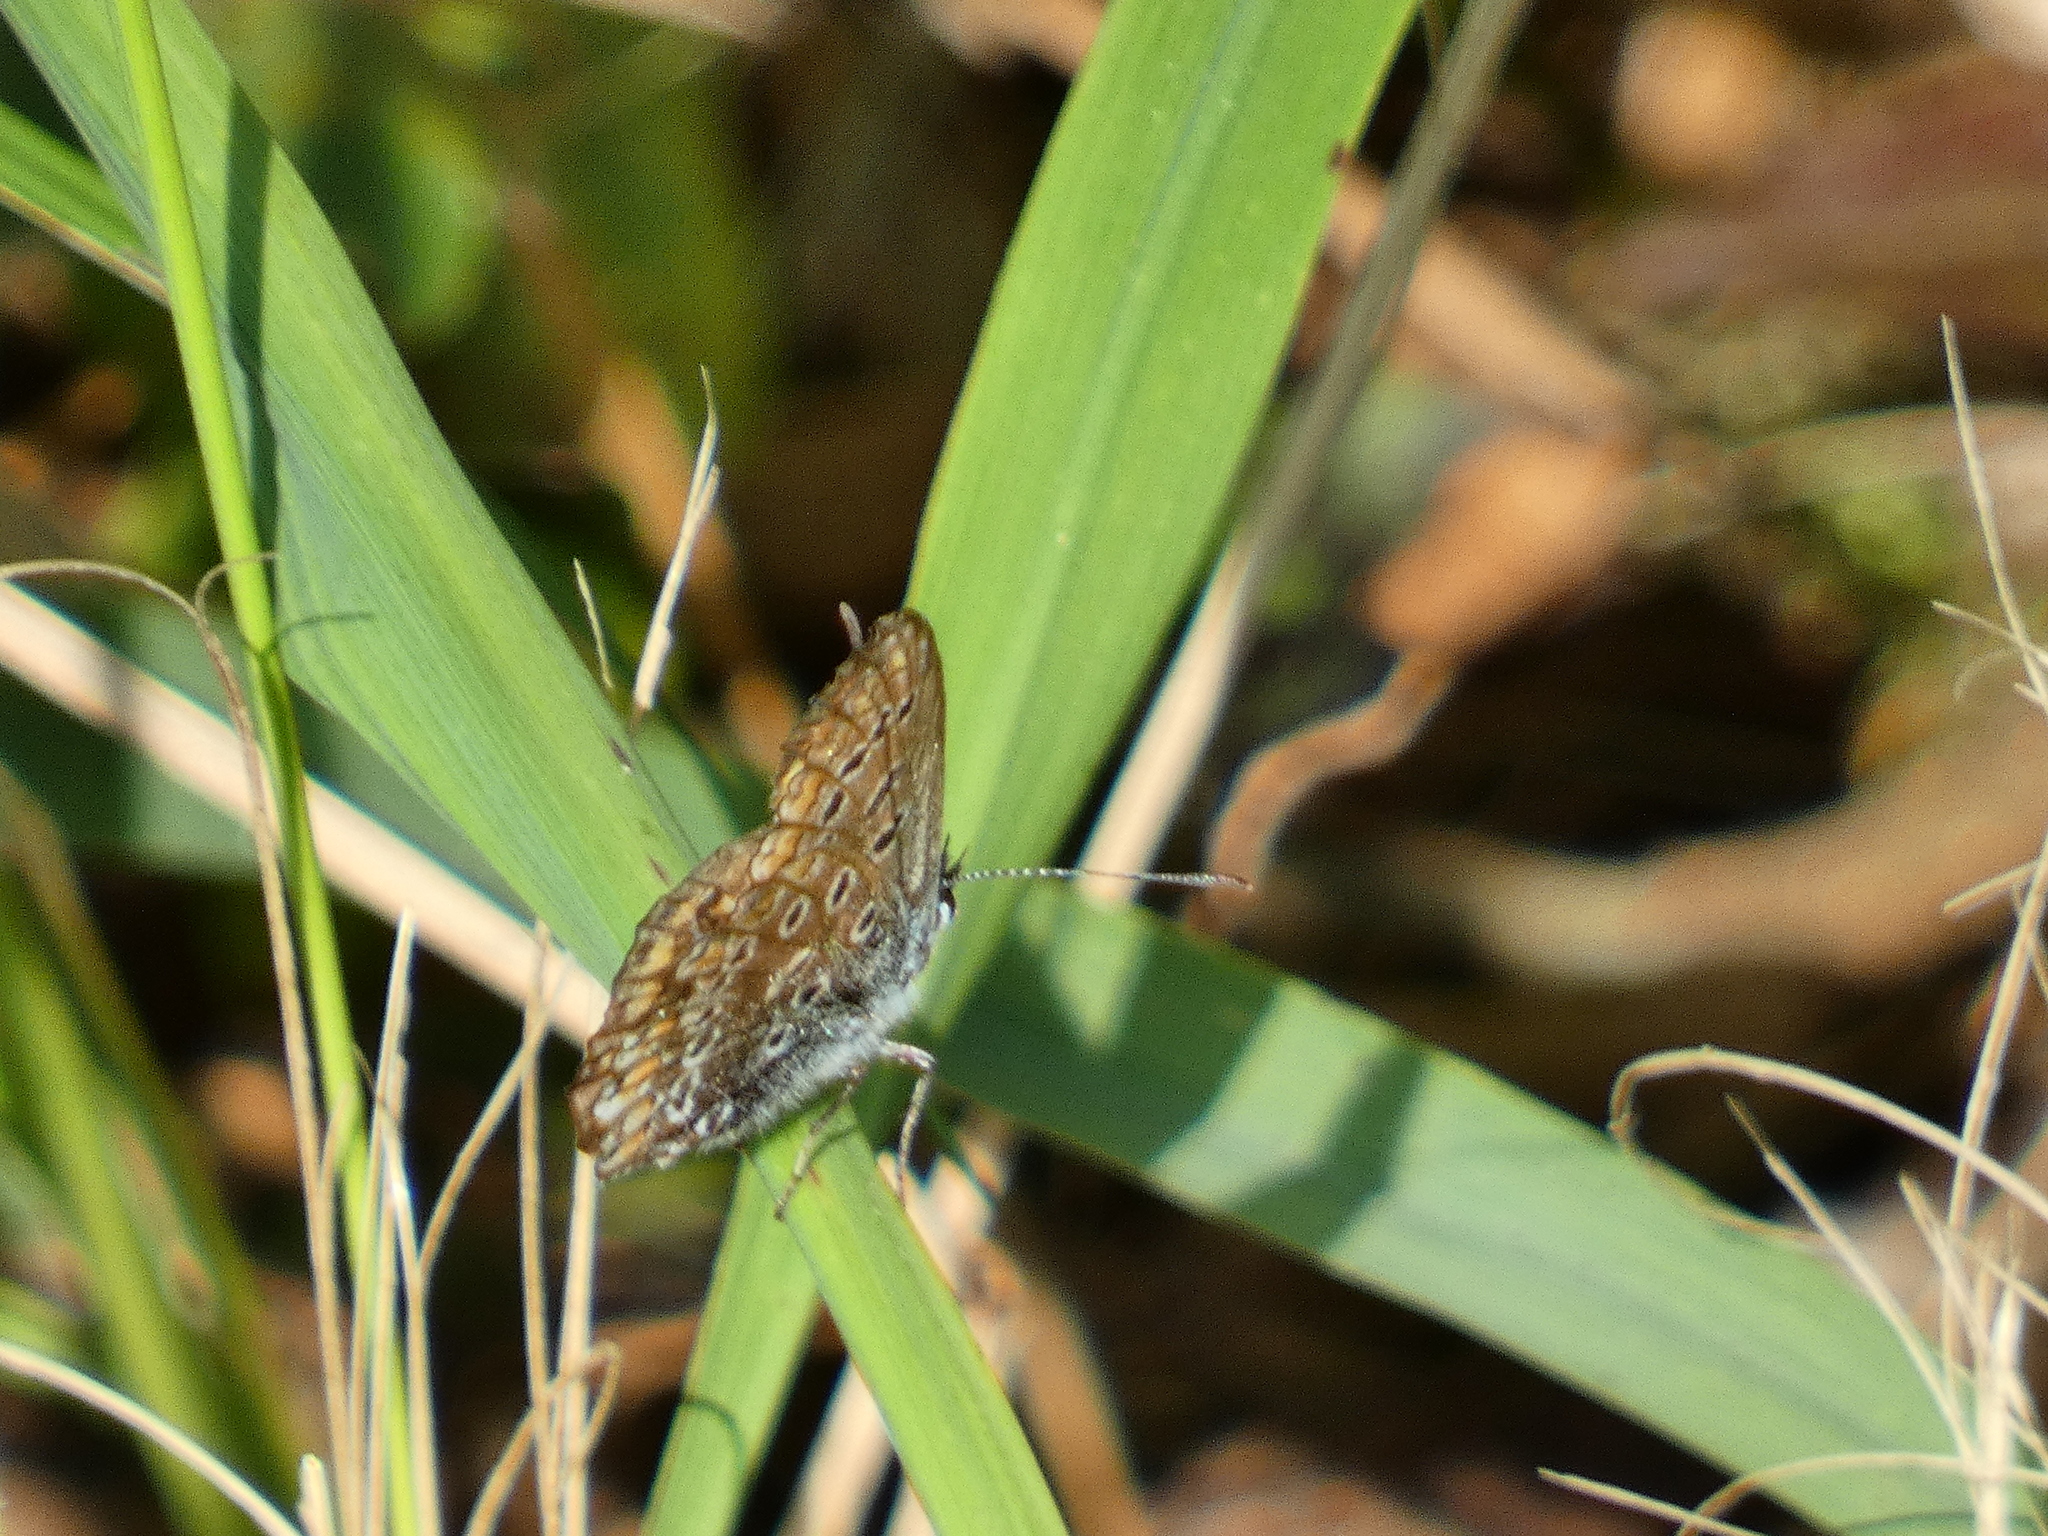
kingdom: Animalia
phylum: Arthropoda
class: Insecta
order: Lepidoptera
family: Lycaenidae
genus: Lysandra
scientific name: Lysandra coridon
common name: Chalkhill blue
